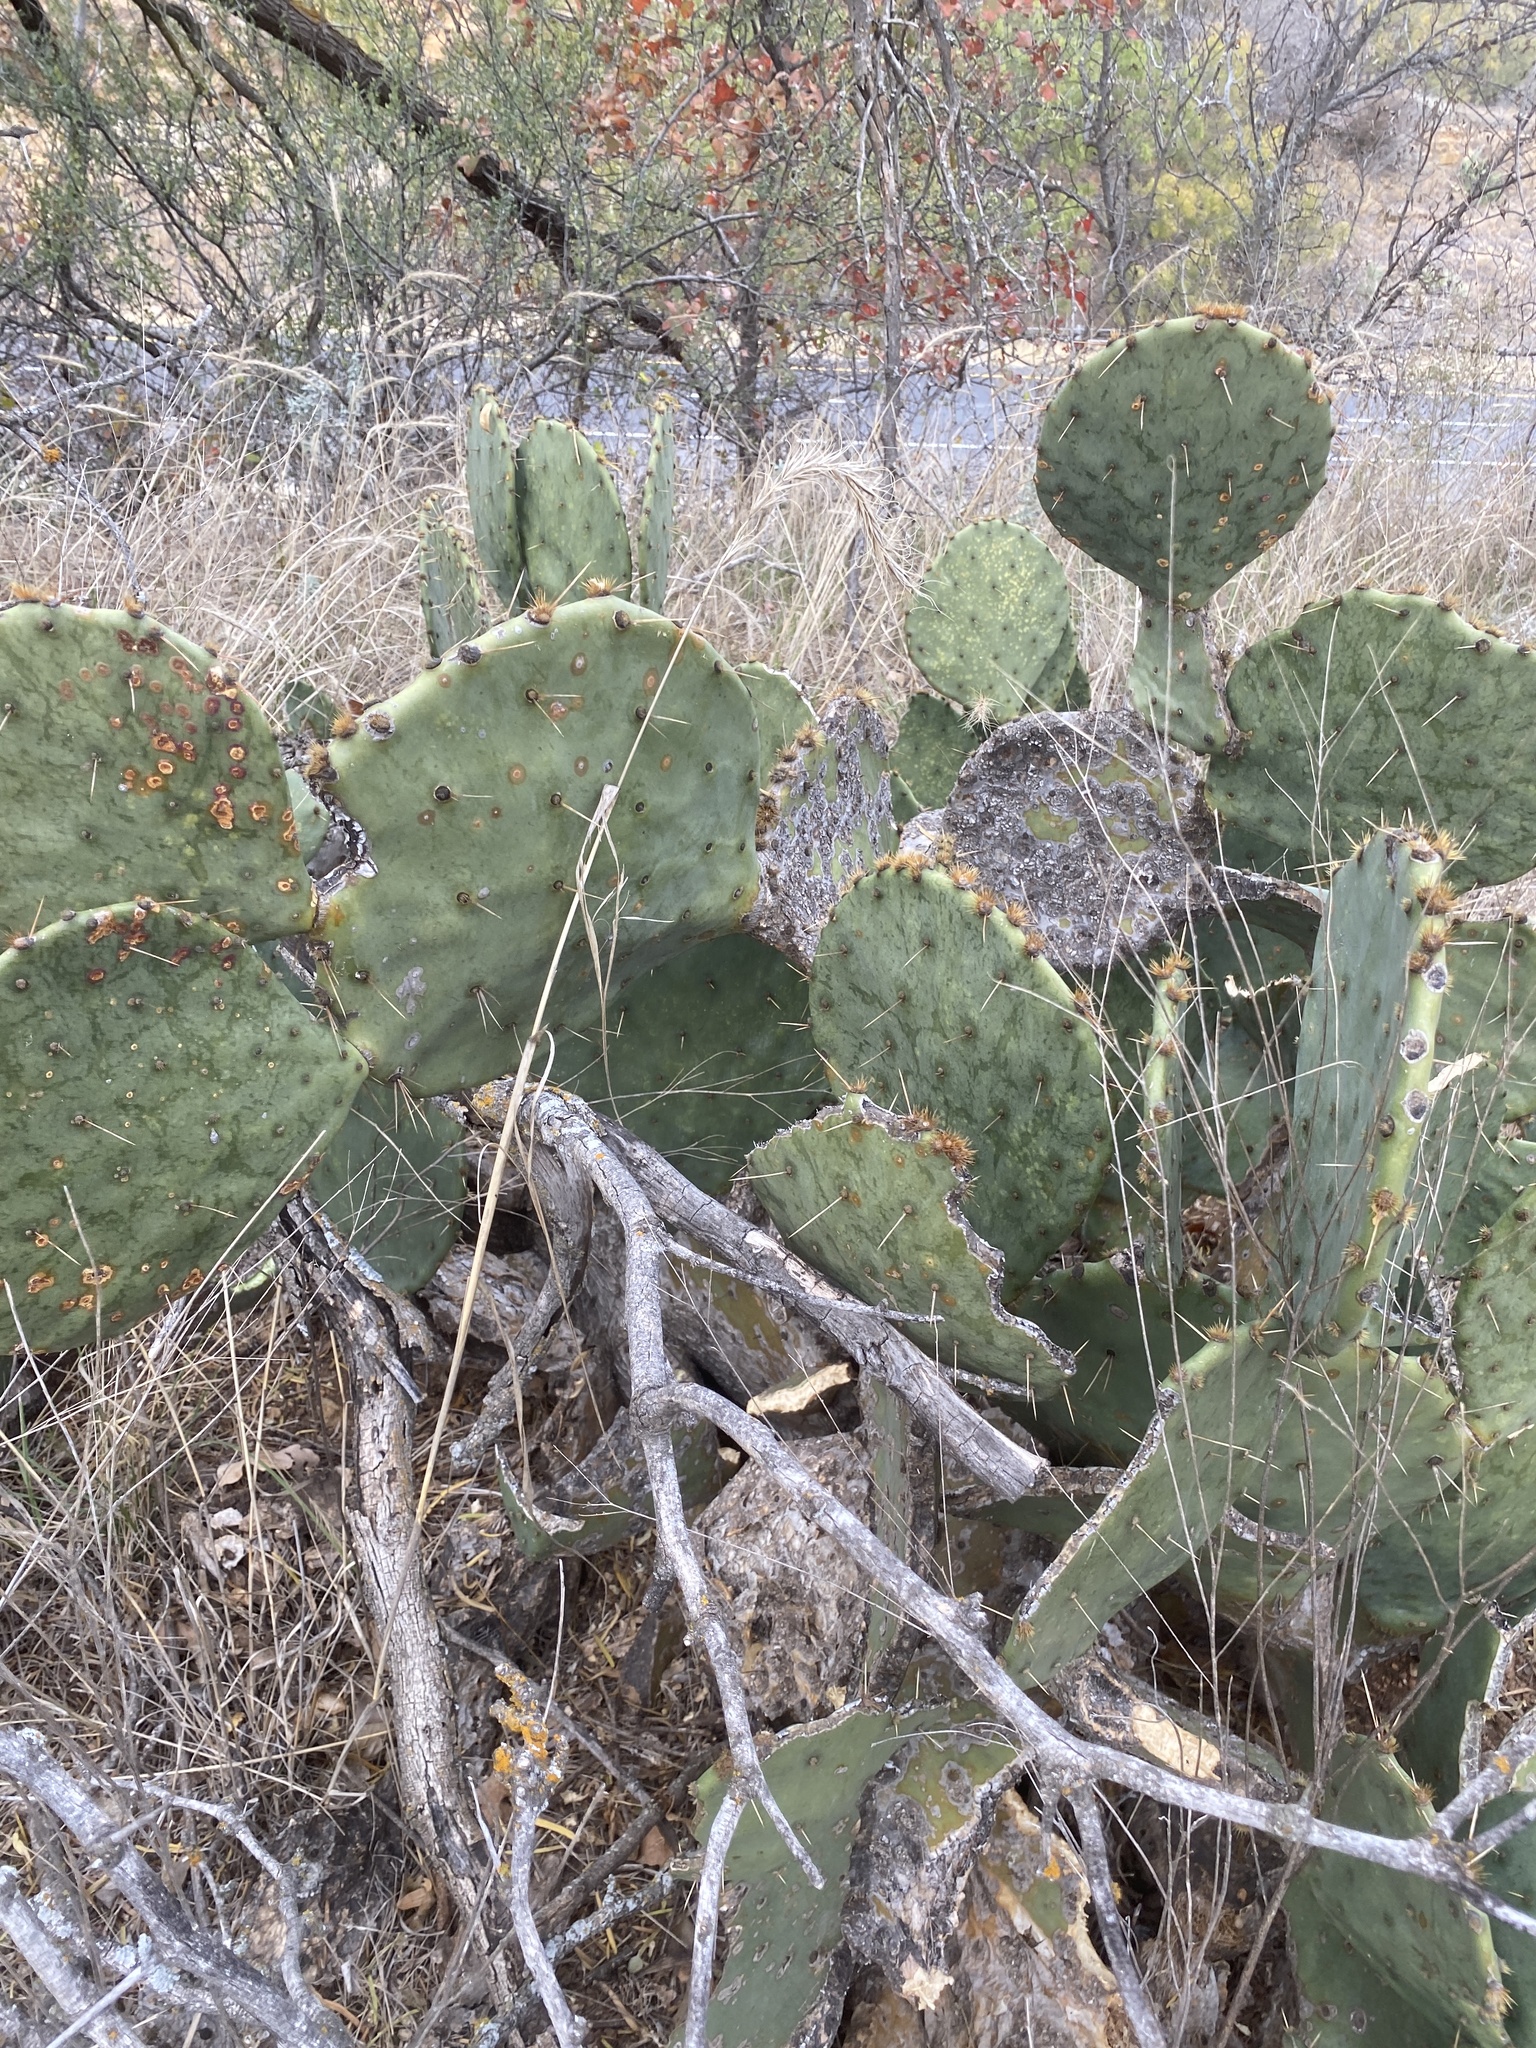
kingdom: Plantae
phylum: Tracheophyta
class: Magnoliopsida
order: Caryophyllales
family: Cactaceae
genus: Opuntia
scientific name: Opuntia engelmannii
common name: Cactus-apple
